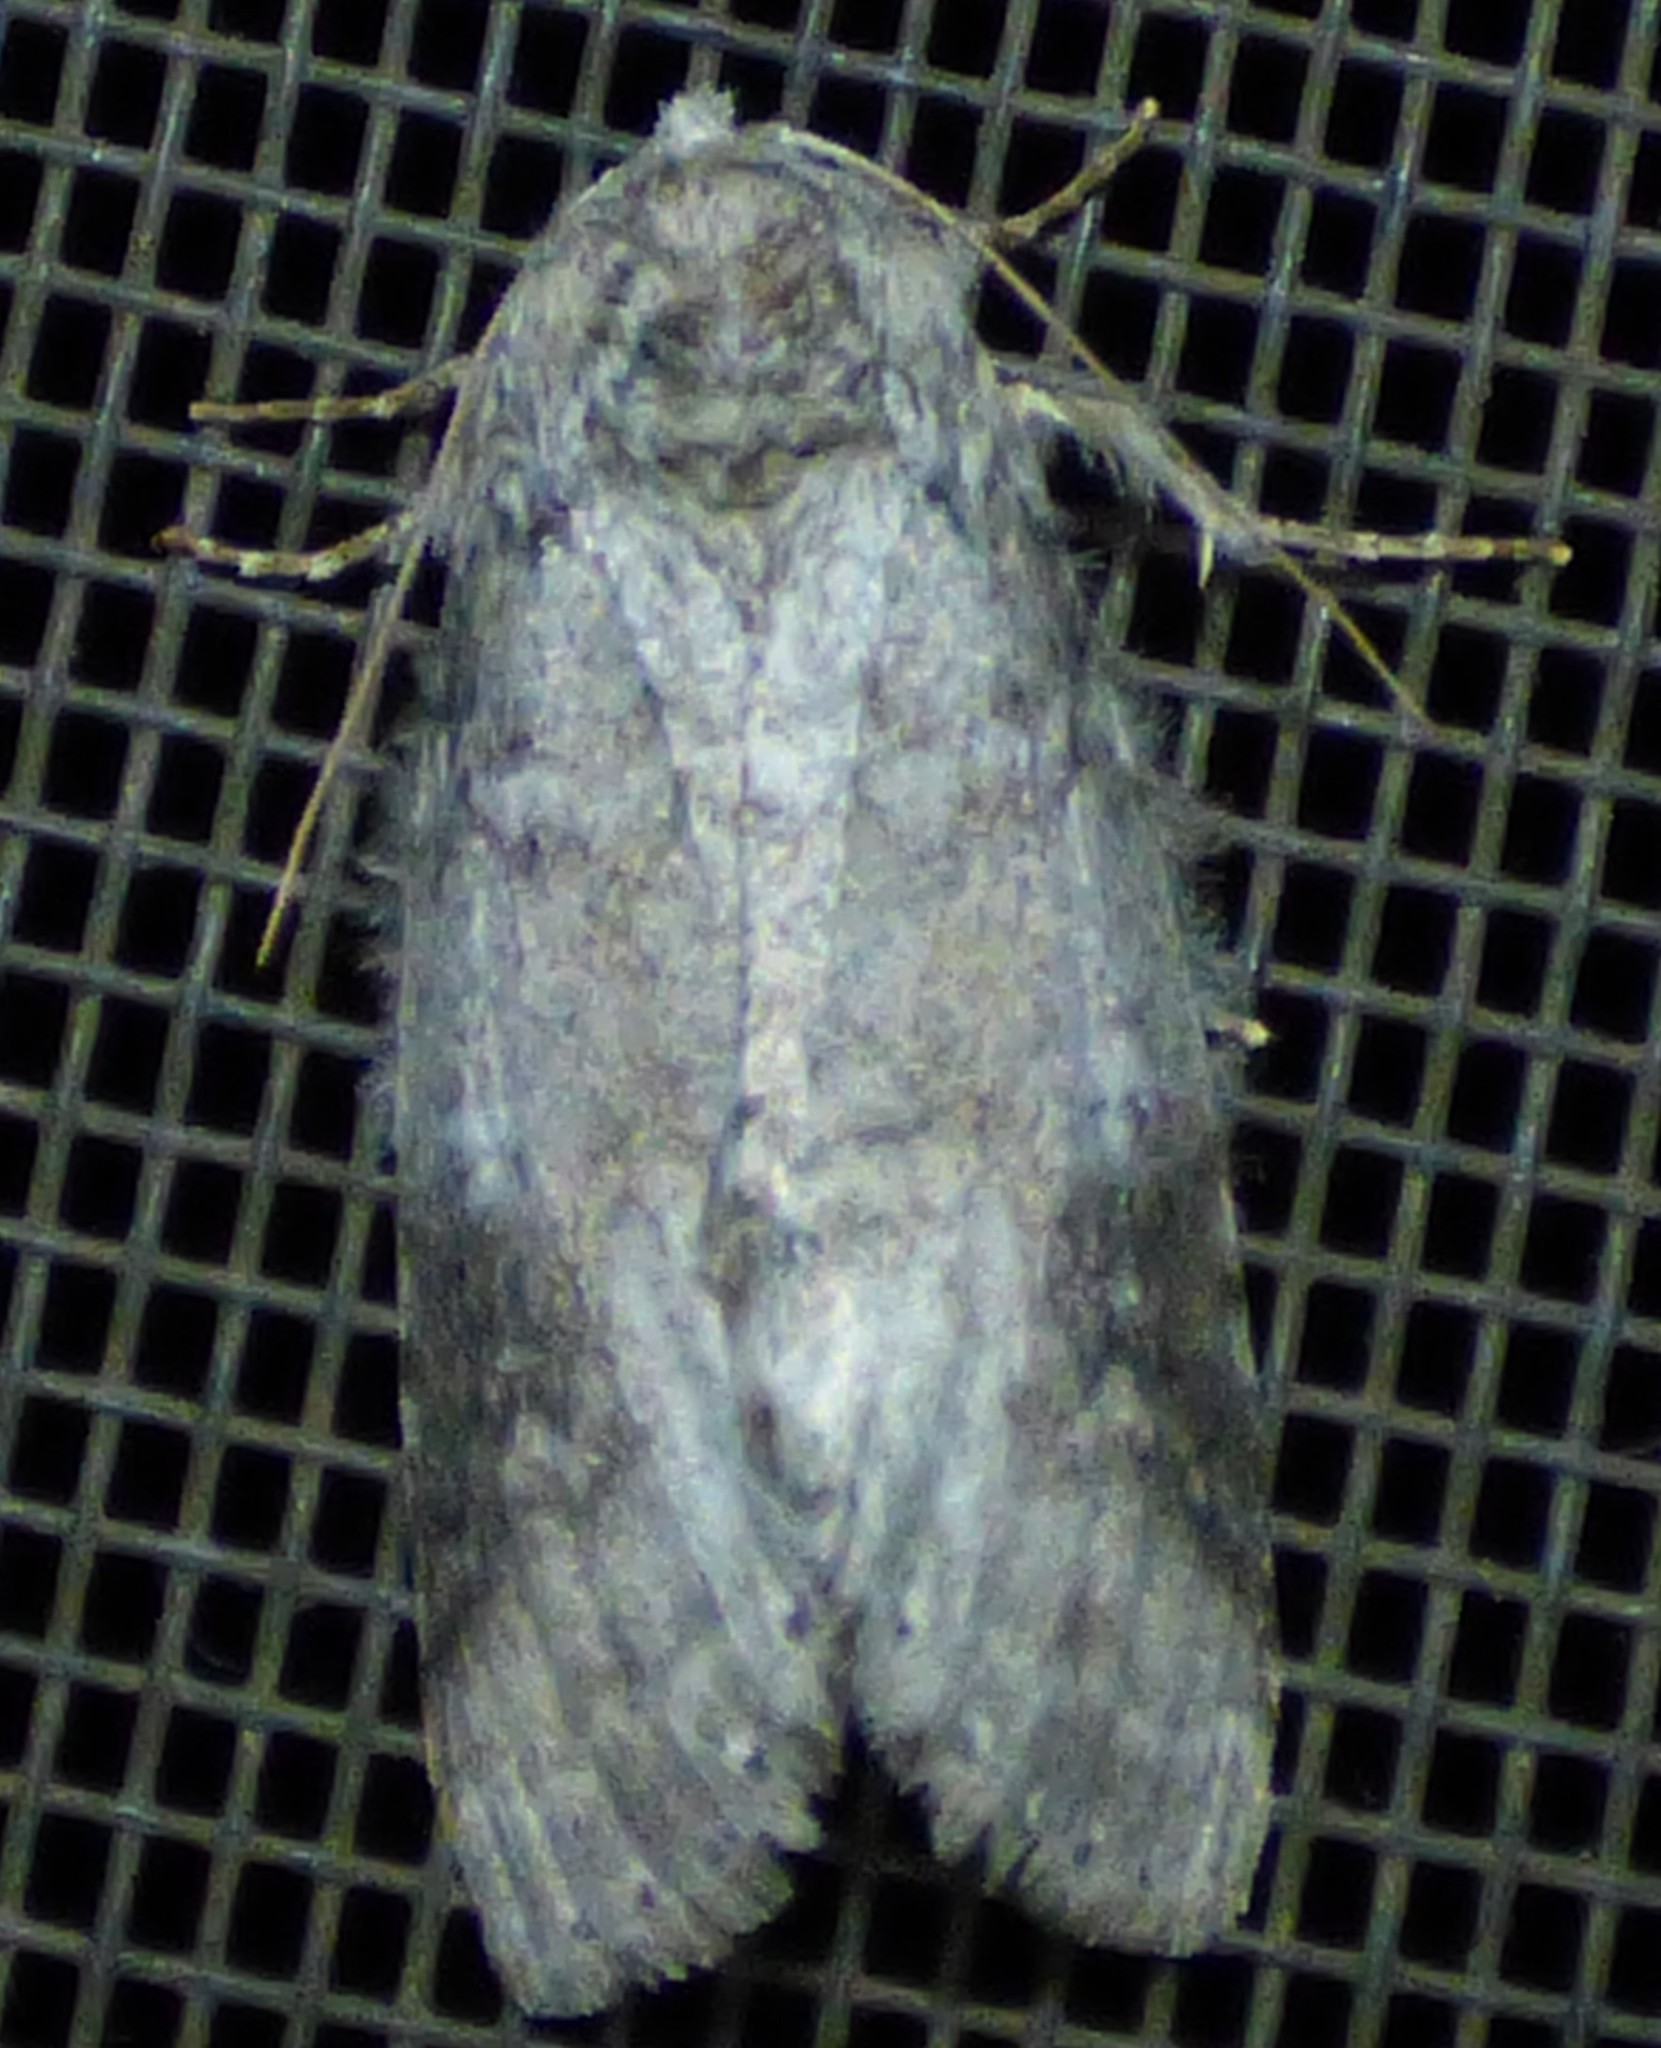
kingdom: Animalia
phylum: Arthropoda
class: Insecta
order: Lepidoptera
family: Notodontidae
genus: Lochmaeus
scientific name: Lochmaeus manteo
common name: Variable oakleaf caterpillar moth
